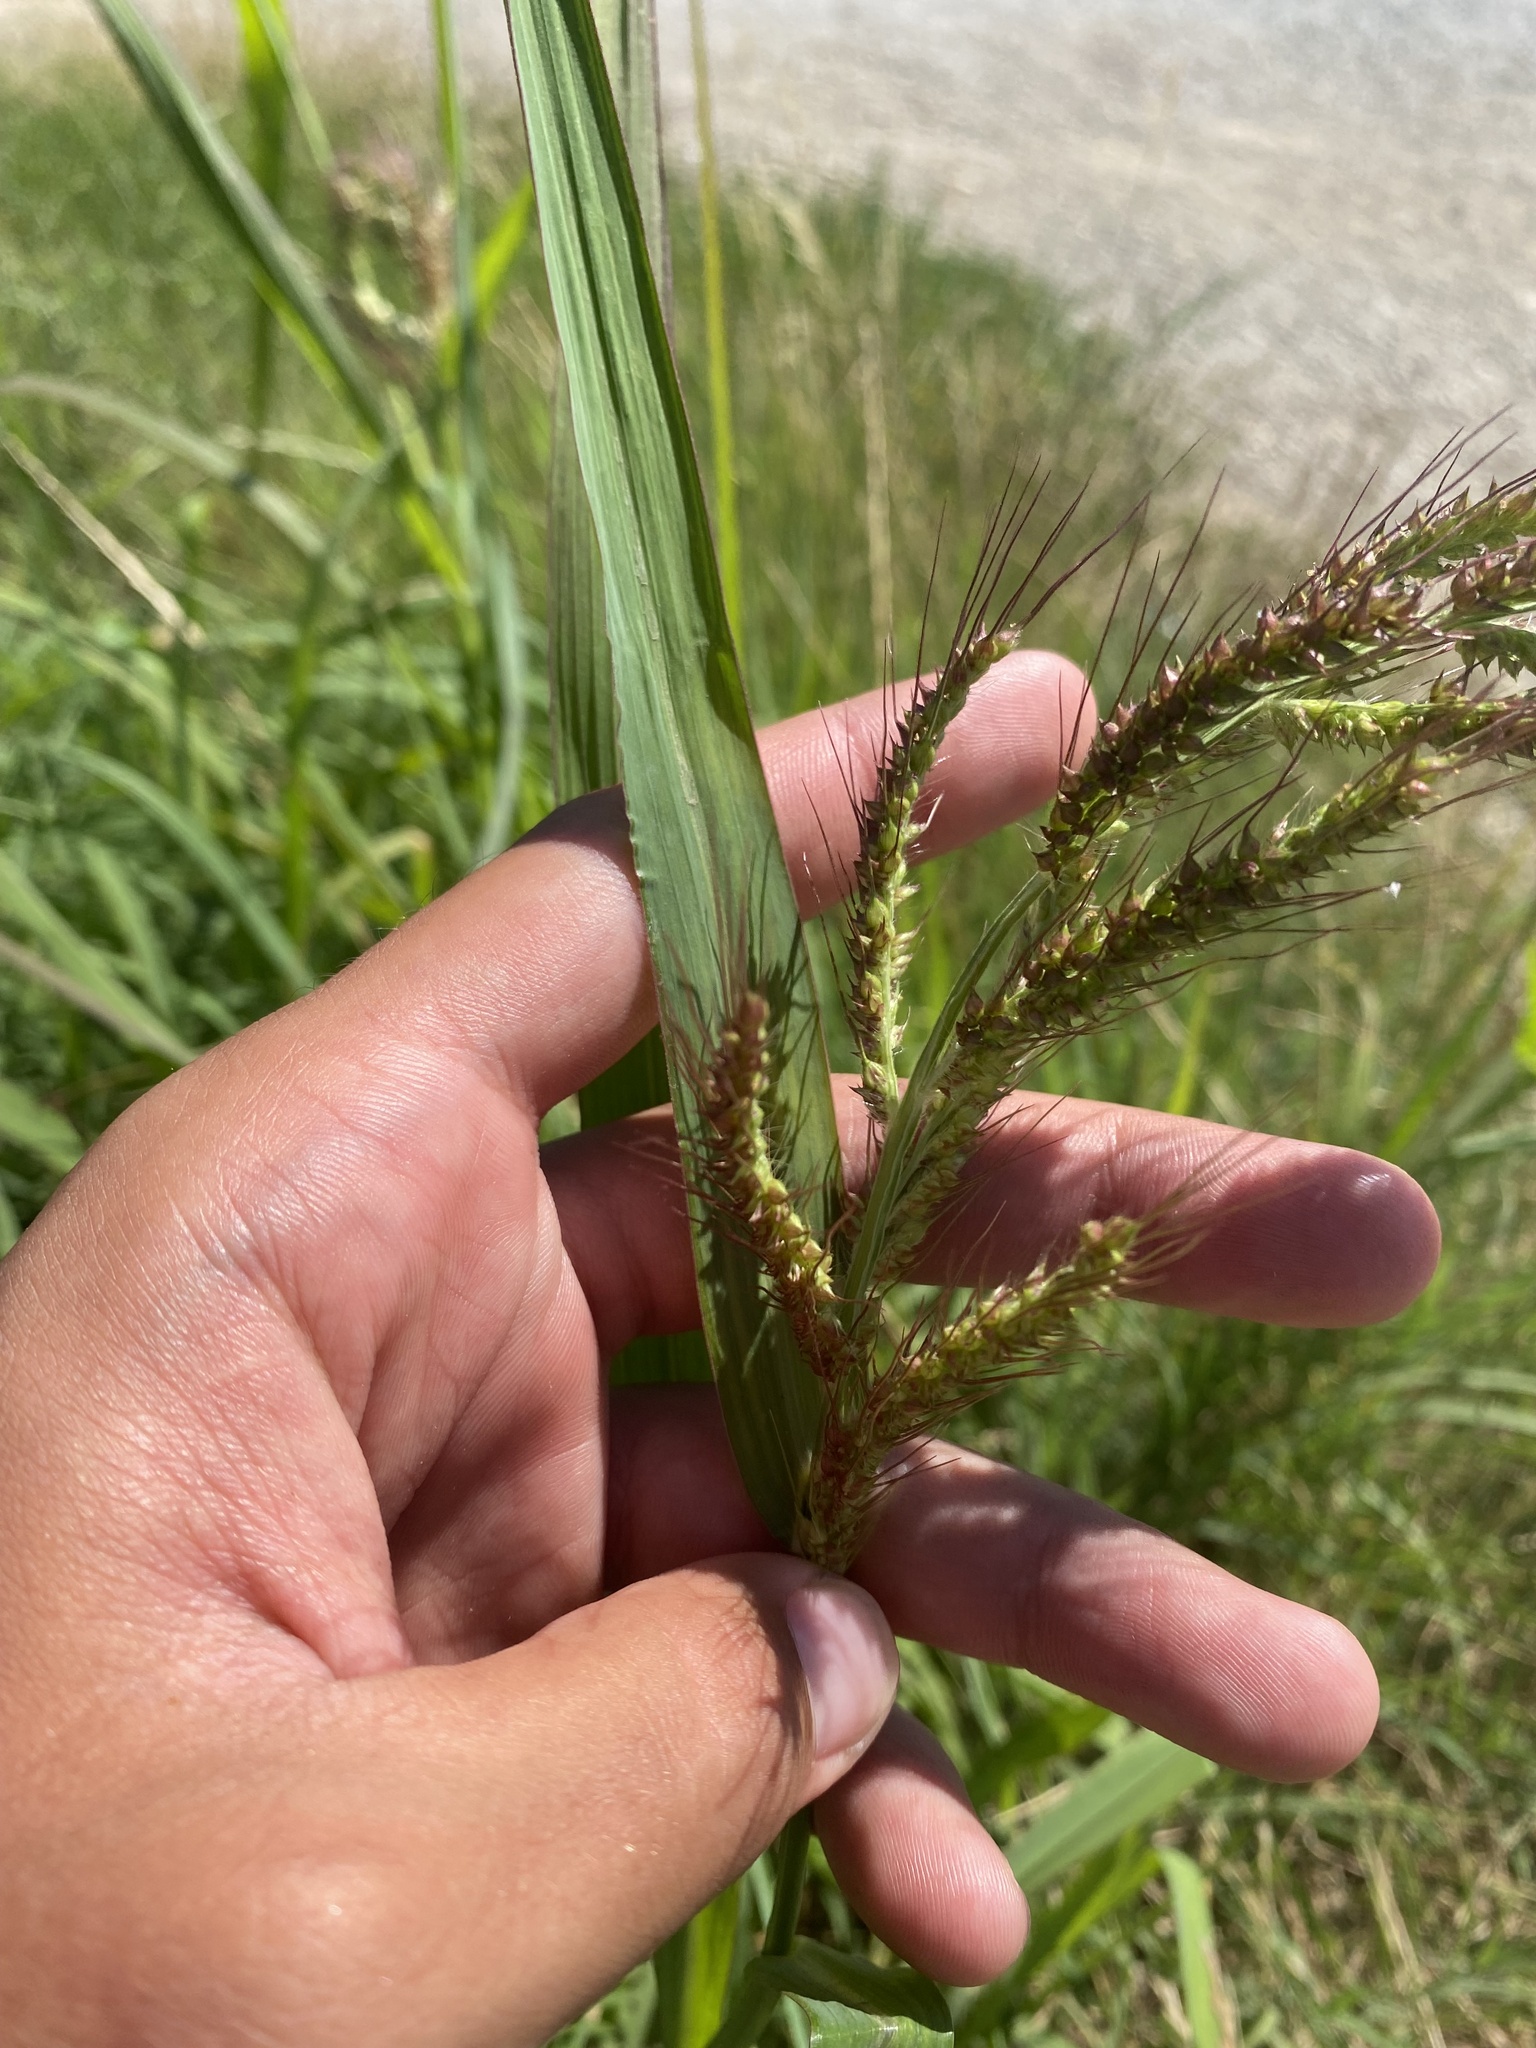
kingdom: Plantae
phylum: Tracheophyta
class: Liliopsida
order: Poales
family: Poaceae
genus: Echinochloa
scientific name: Echinochloa crus-galli
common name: Cockspur
